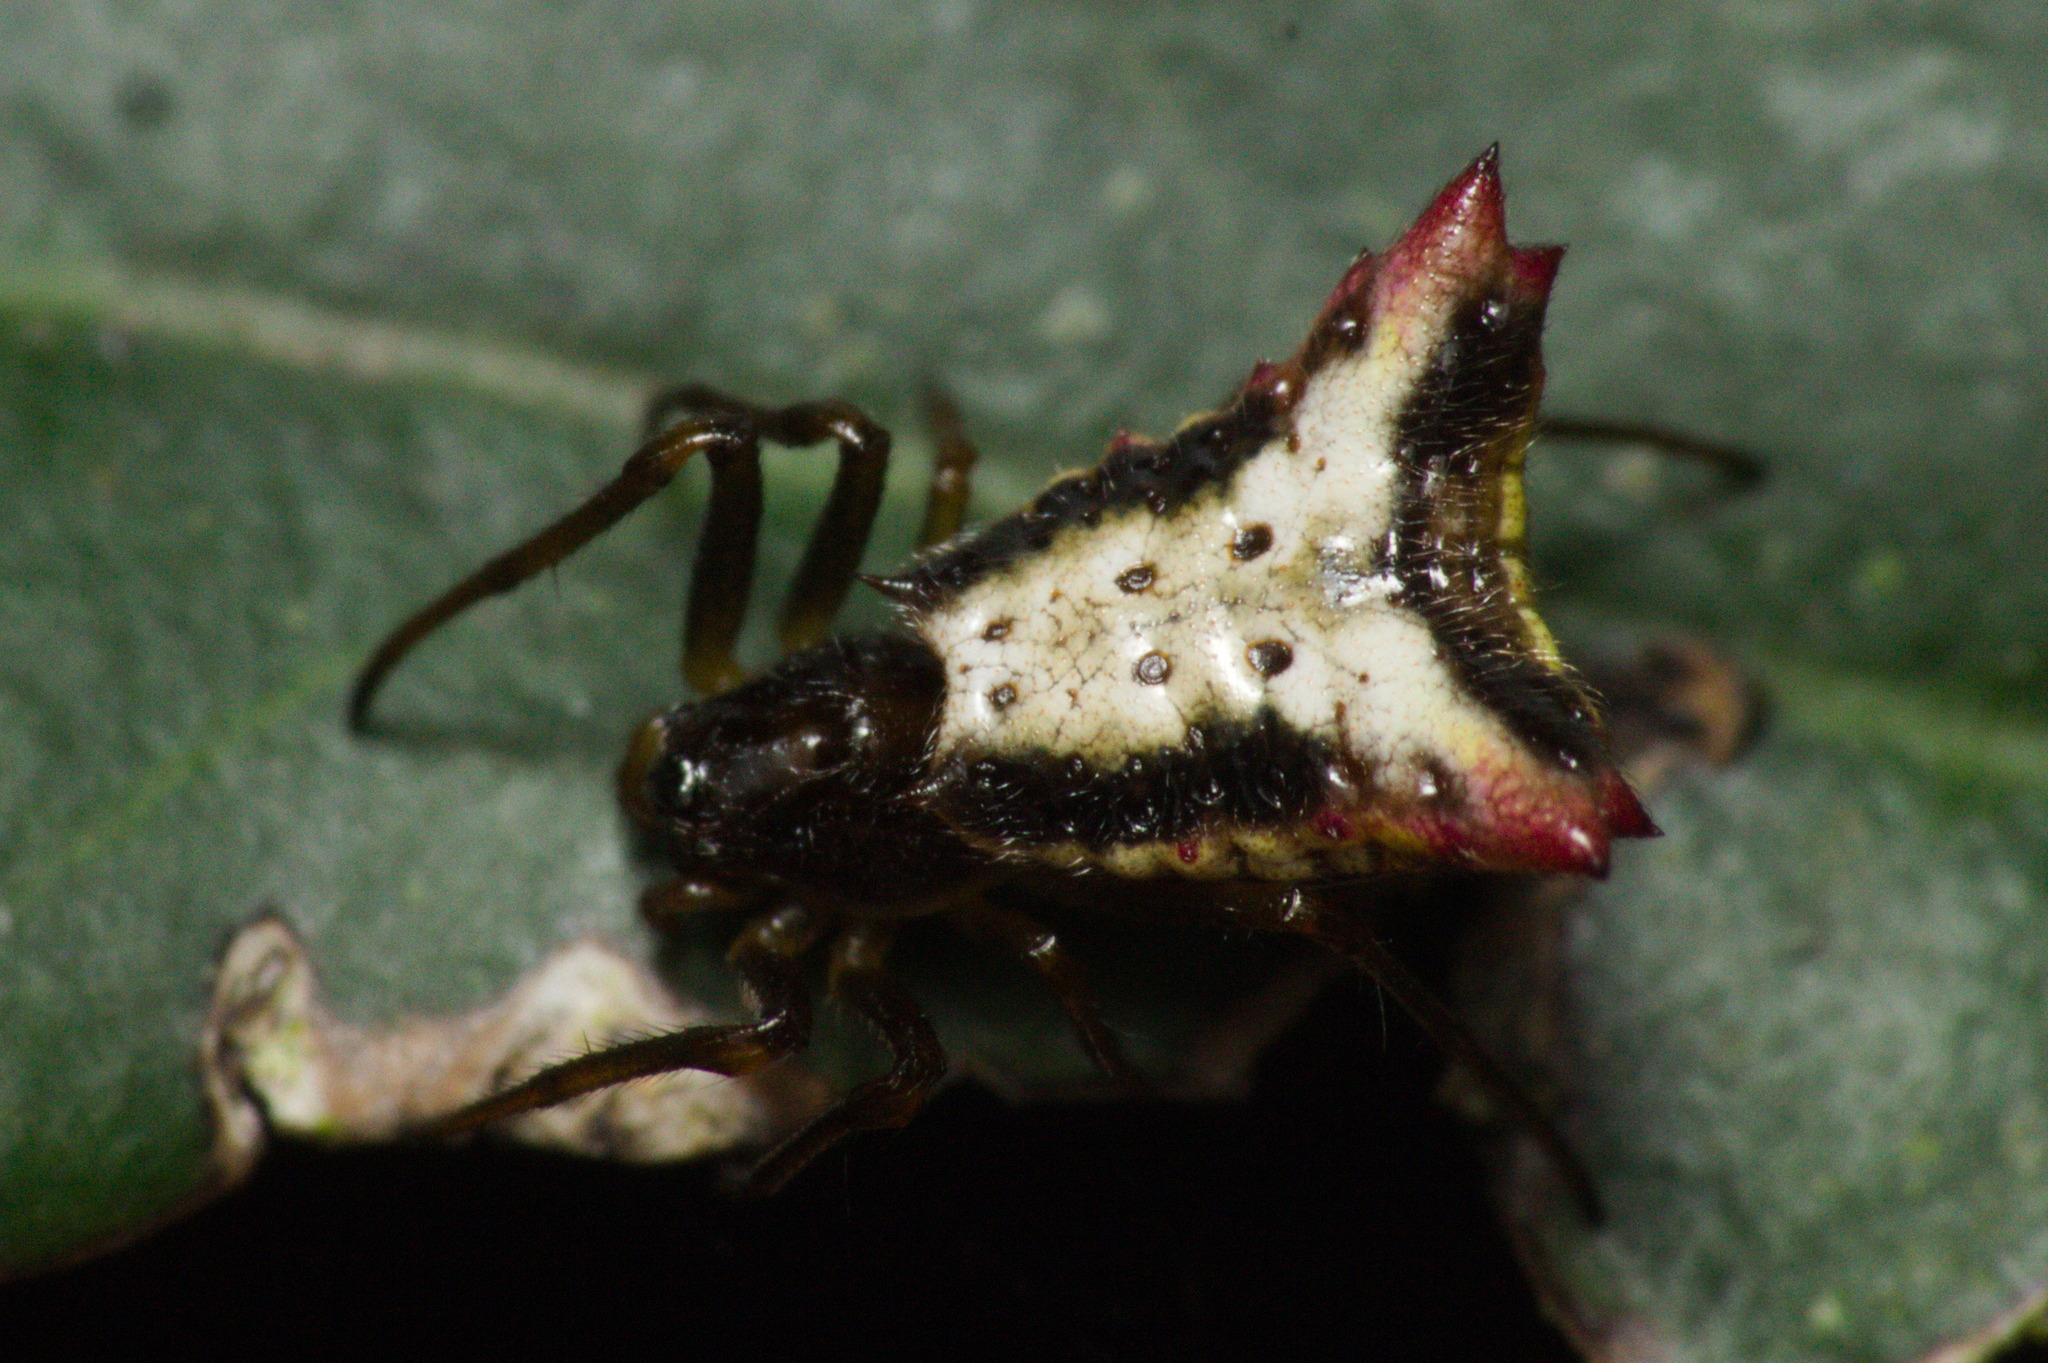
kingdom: Animalia
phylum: Arthropoda
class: Arachnida
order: Araneae
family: Araneidae
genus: Micrathena
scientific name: Micrathena plana
